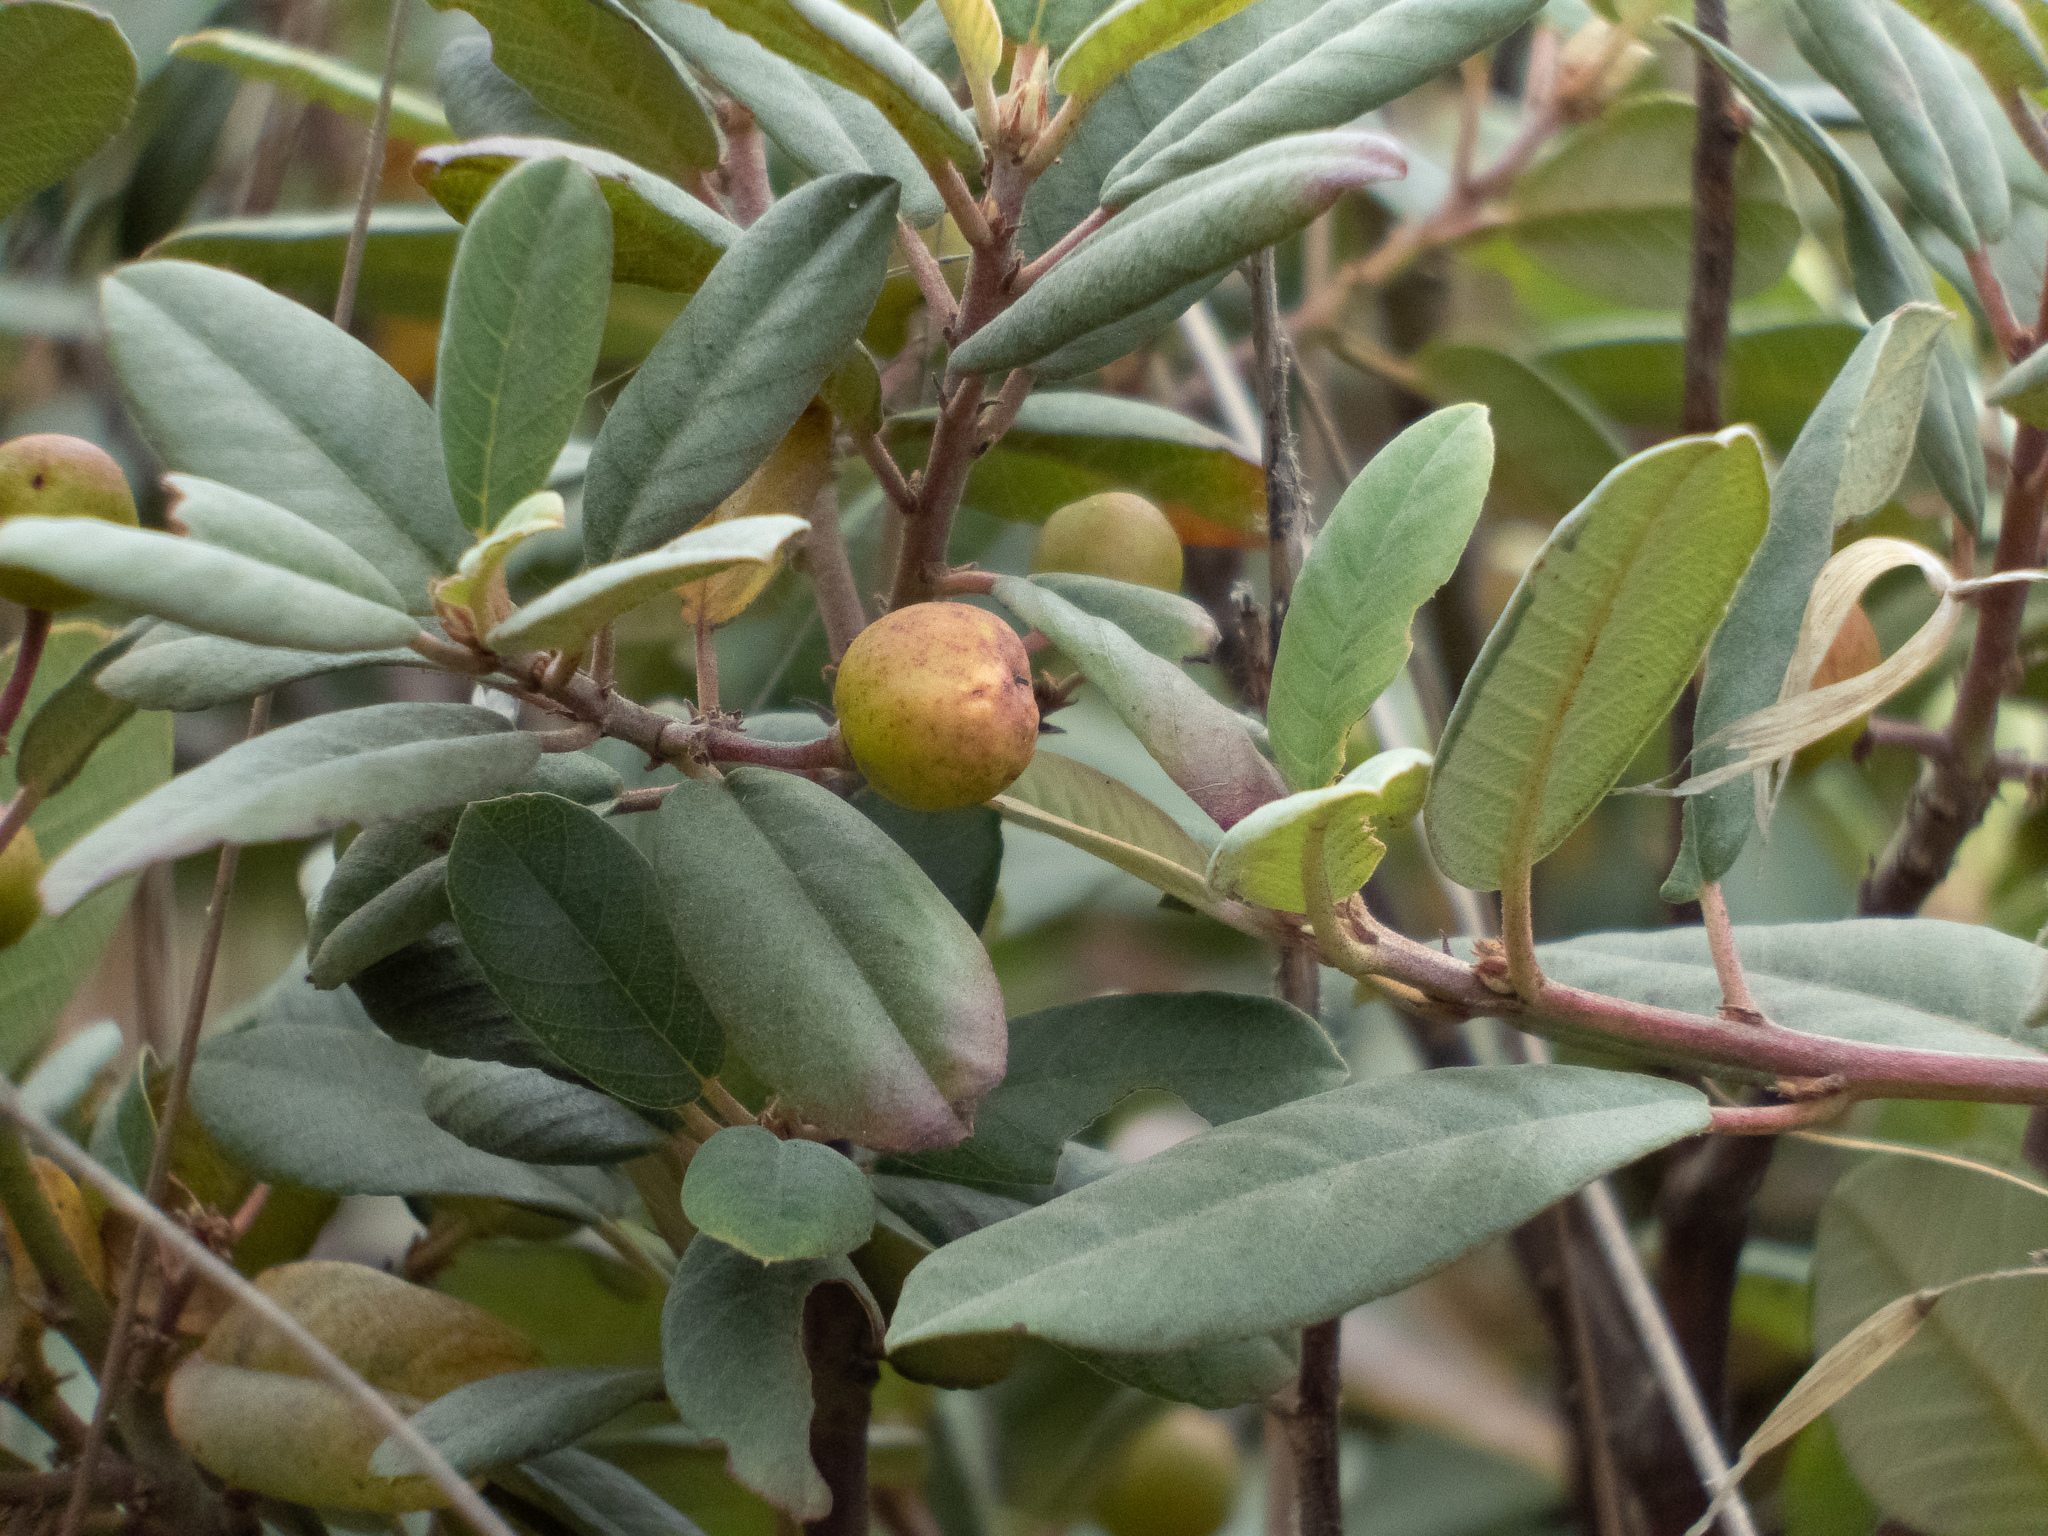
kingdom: Plantae
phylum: Tracheophyta
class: Magnoliopsida
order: Rosales
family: Rhamnaceae
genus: Frangula
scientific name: Frangula californica
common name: California buckthorn
